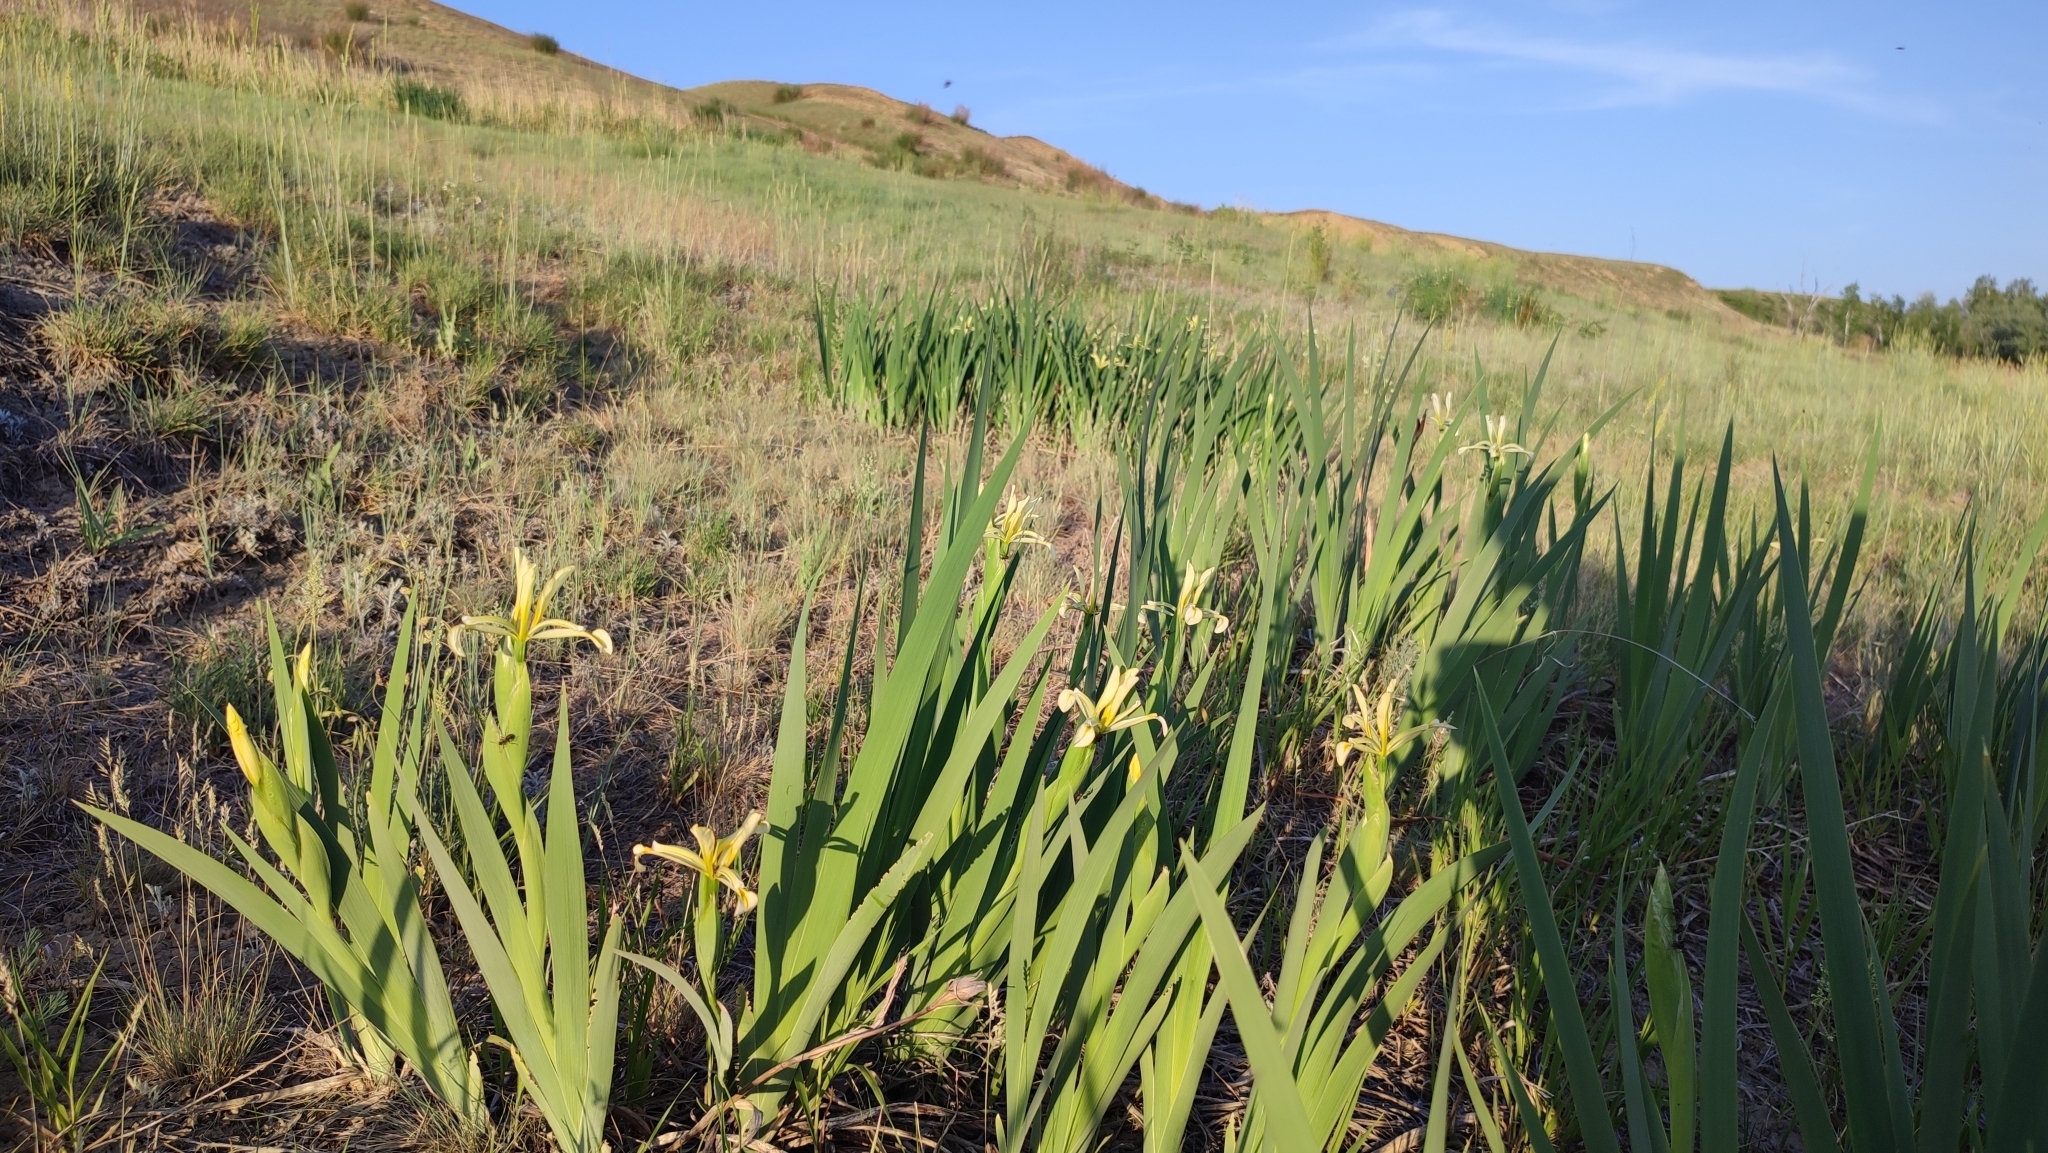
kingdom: Plantae
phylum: Tracheophyta
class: Liliopsida
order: Asparagales
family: Iridaceae
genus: Iris
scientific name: Iris halophila
